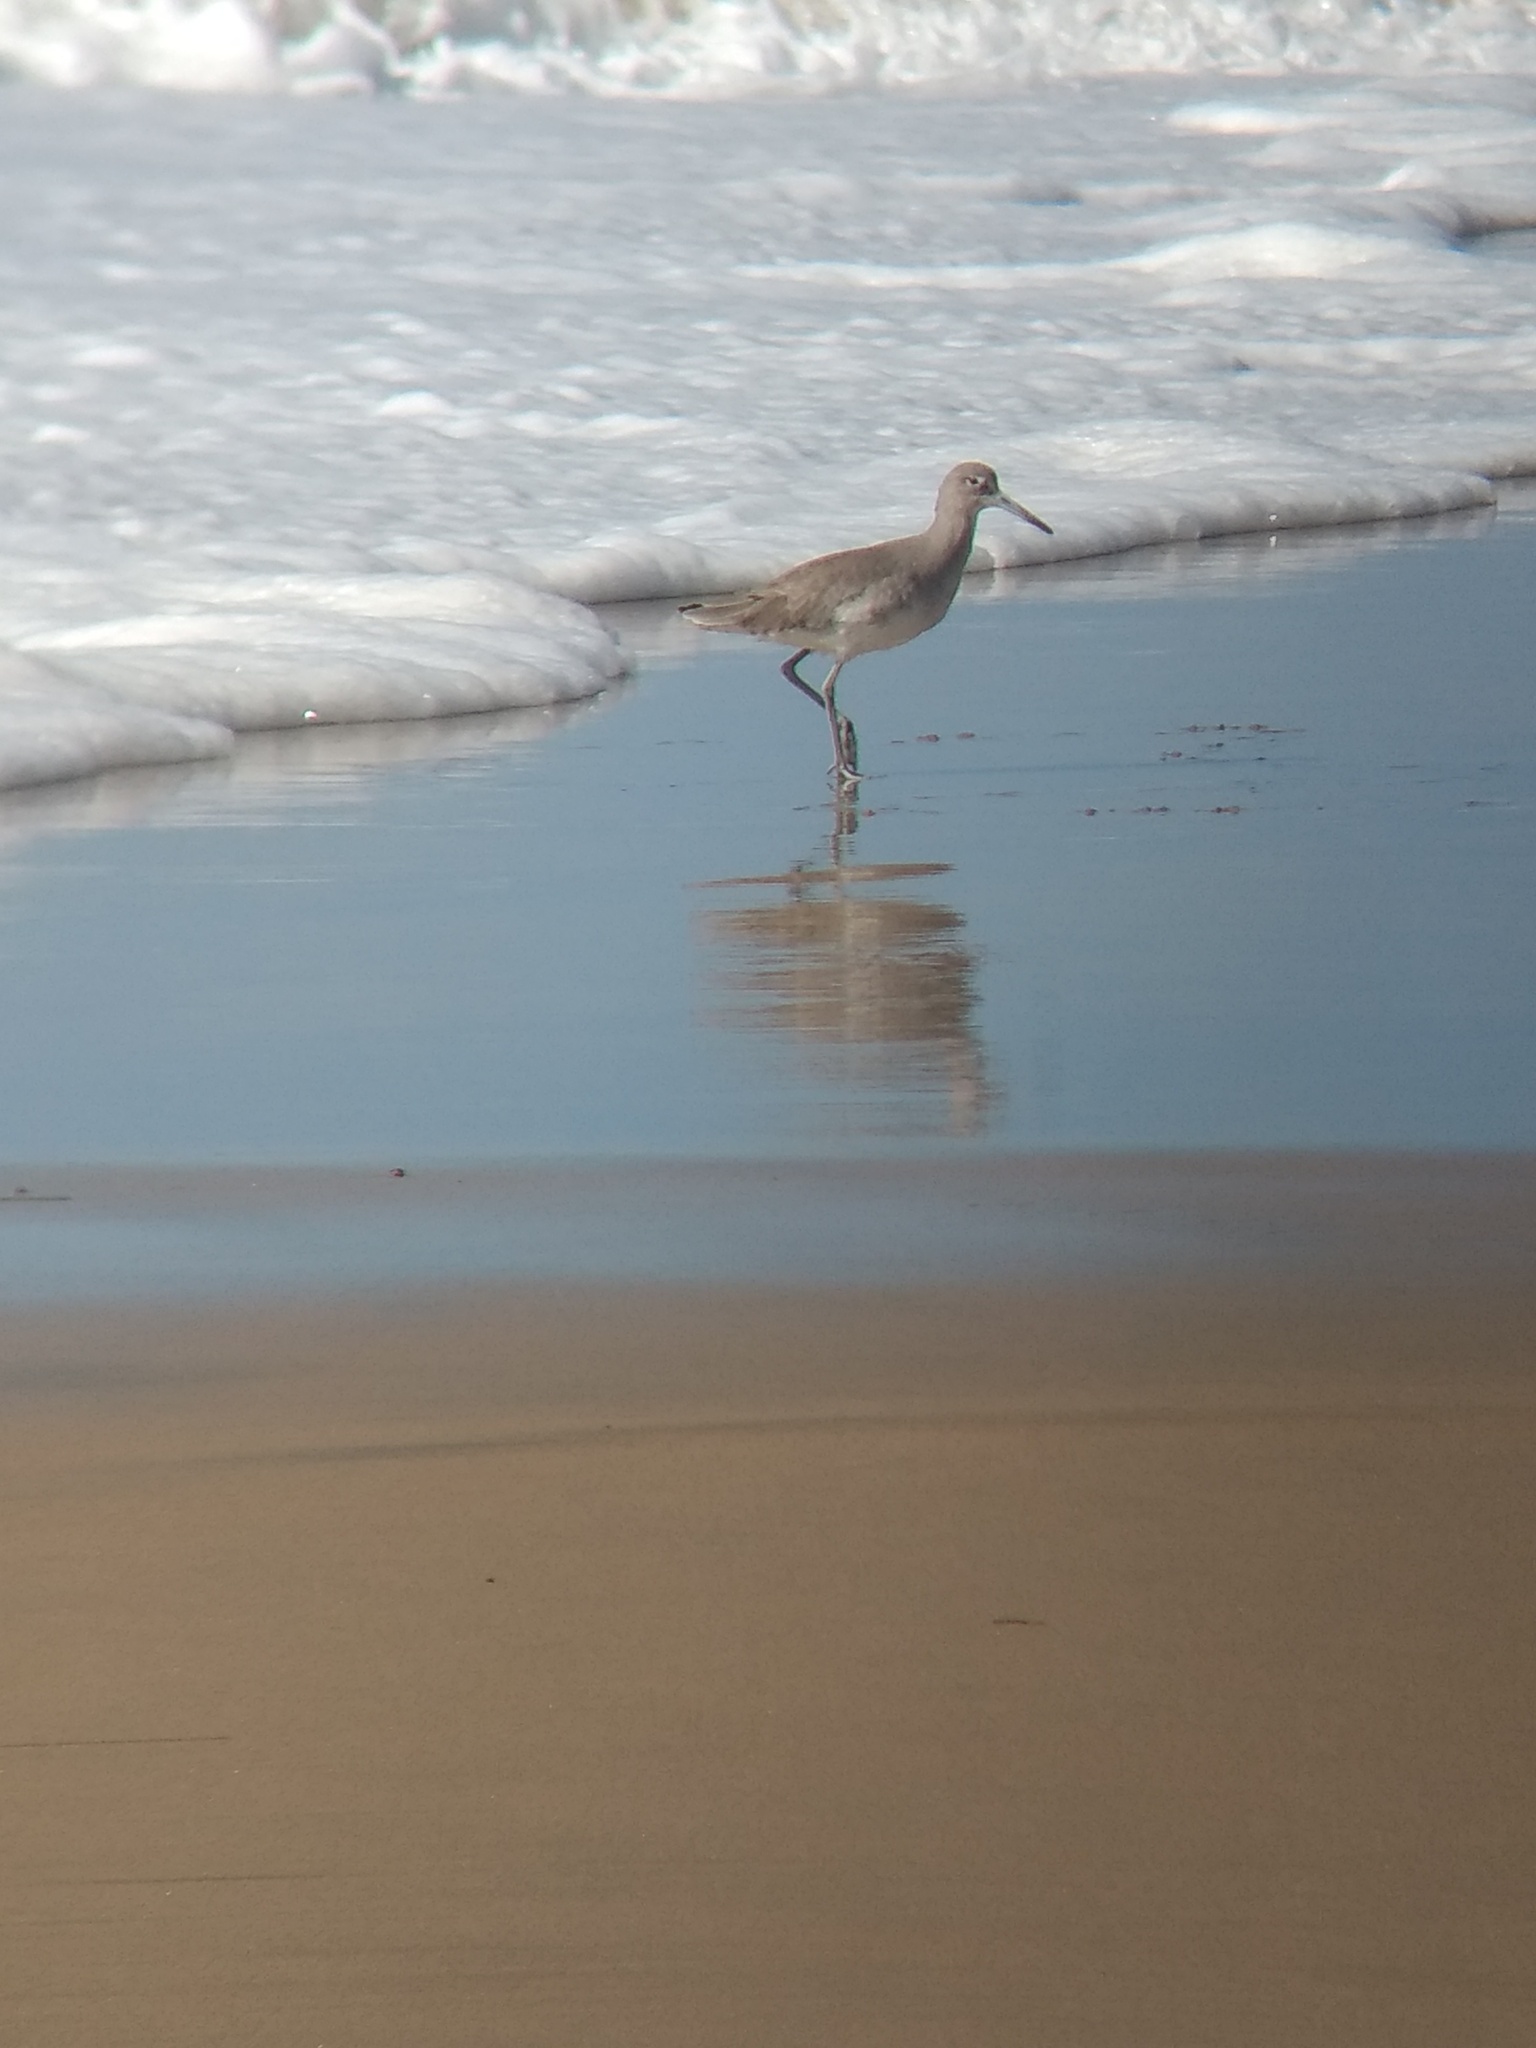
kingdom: Animalia
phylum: Chordata
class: Aves
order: Charadriiformes
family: Scolopacidae
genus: Tringa
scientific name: Tringa semipalmata
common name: Willet
